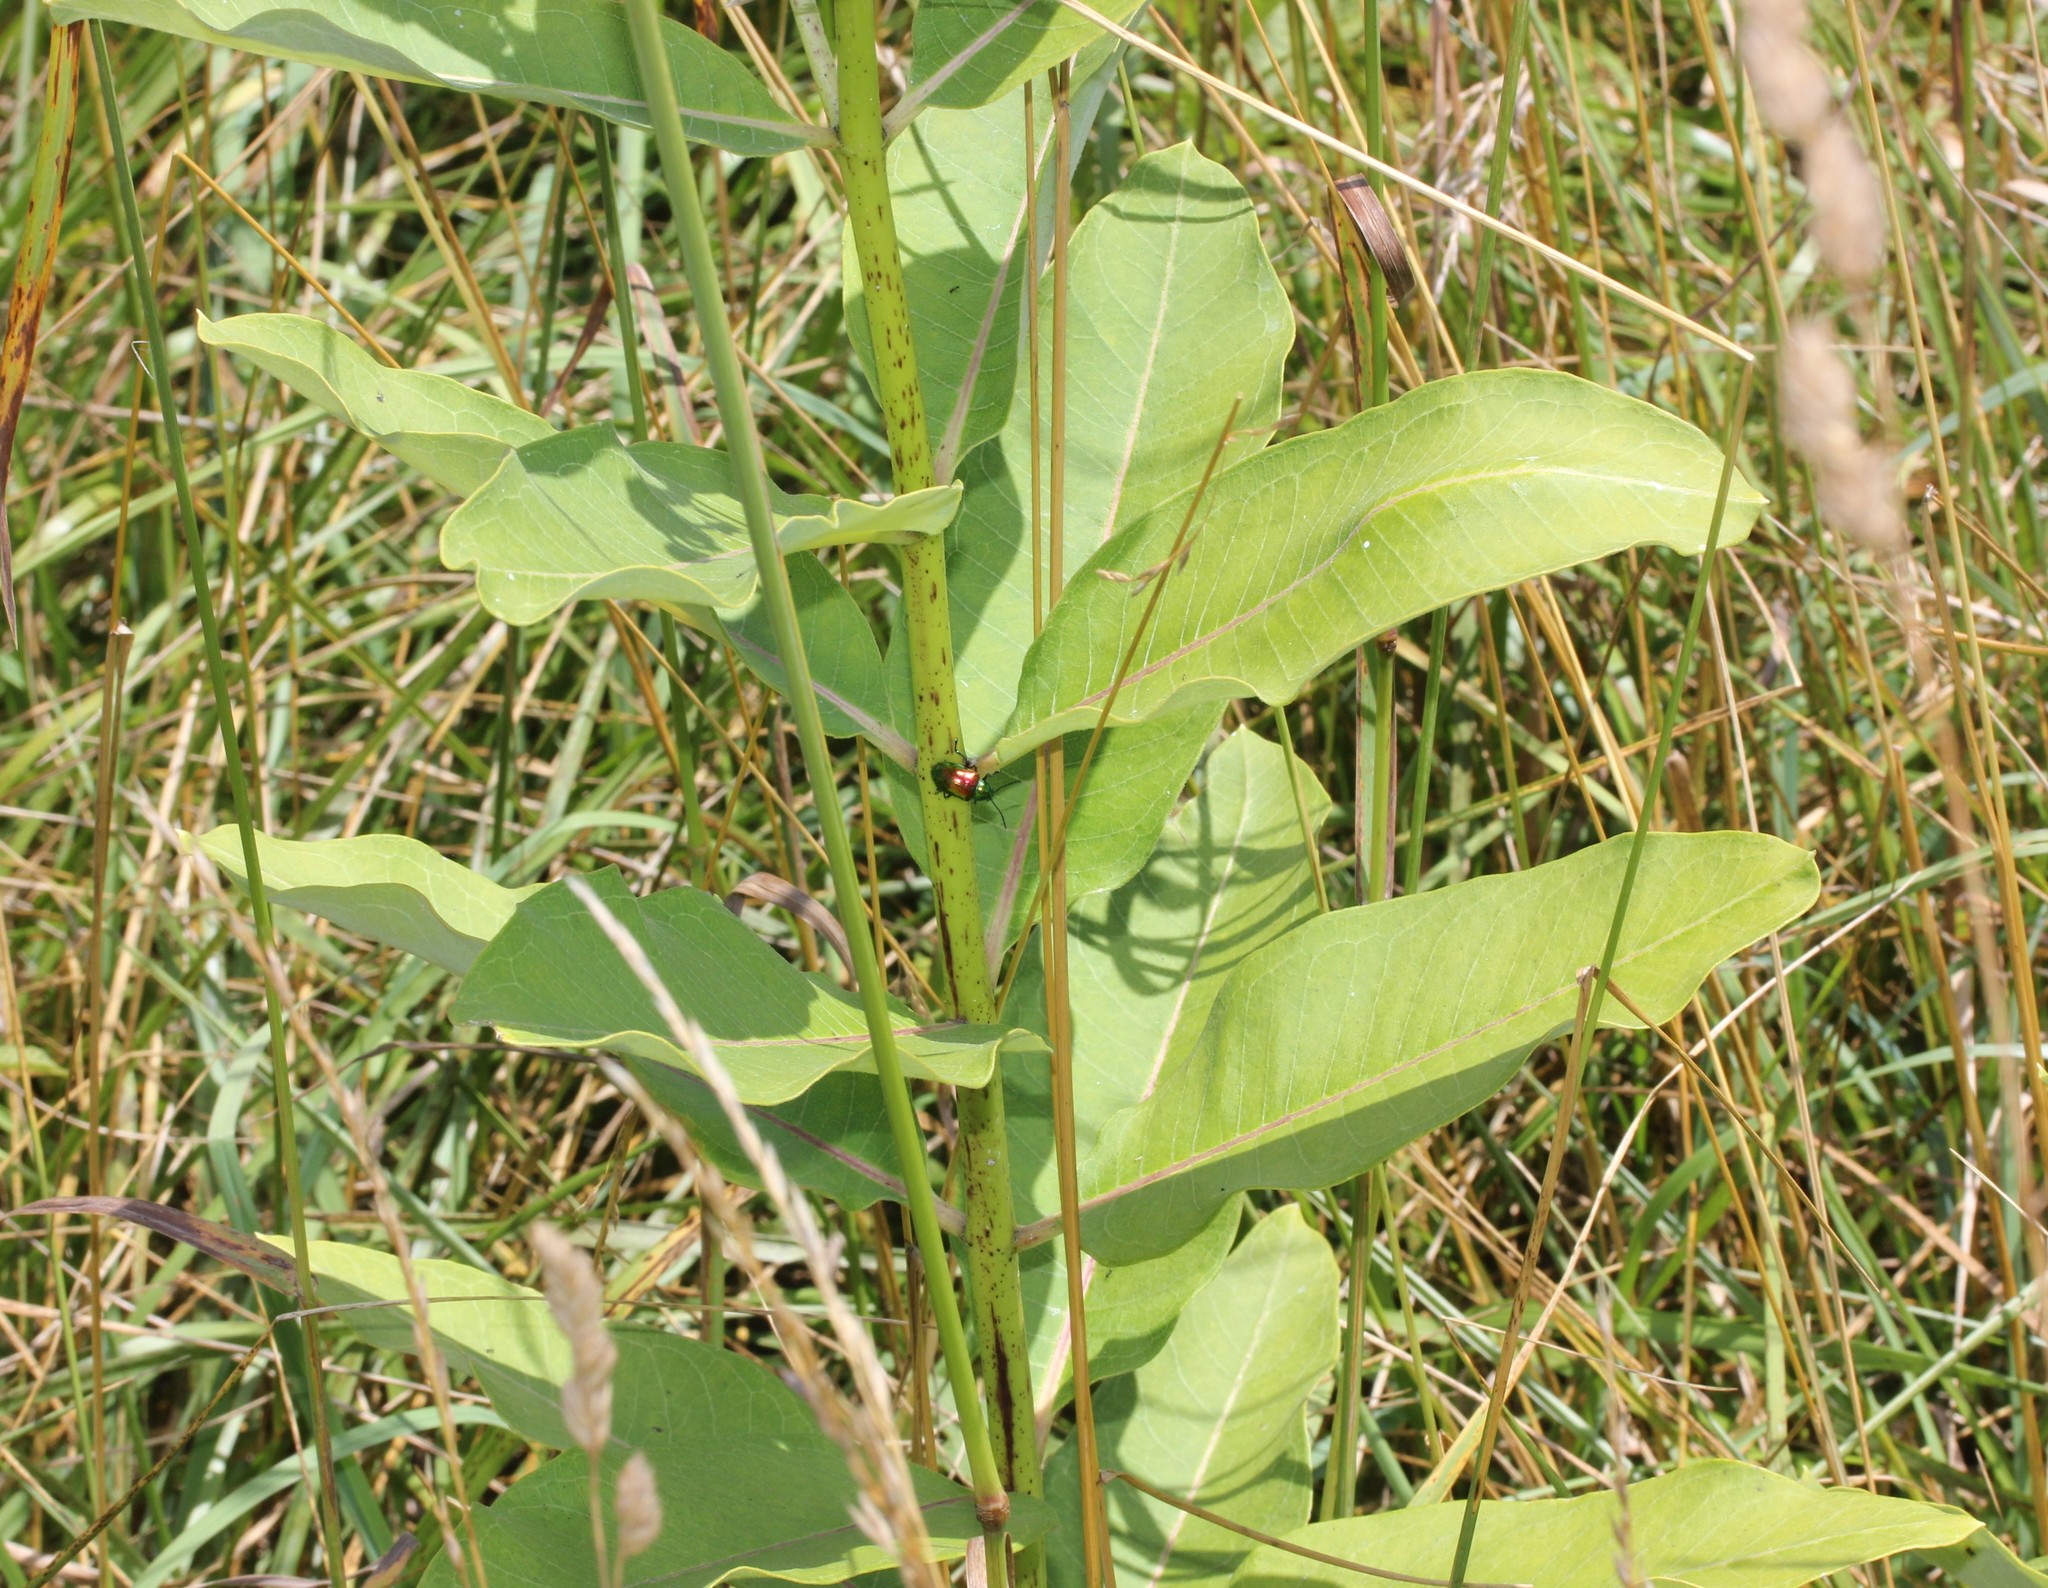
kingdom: Plantae
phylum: Tracheophyta
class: Magnoliopsida
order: Gentianales
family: Apocynaceae
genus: Asclepias
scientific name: Asclepias syriaca
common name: Common milkweed
